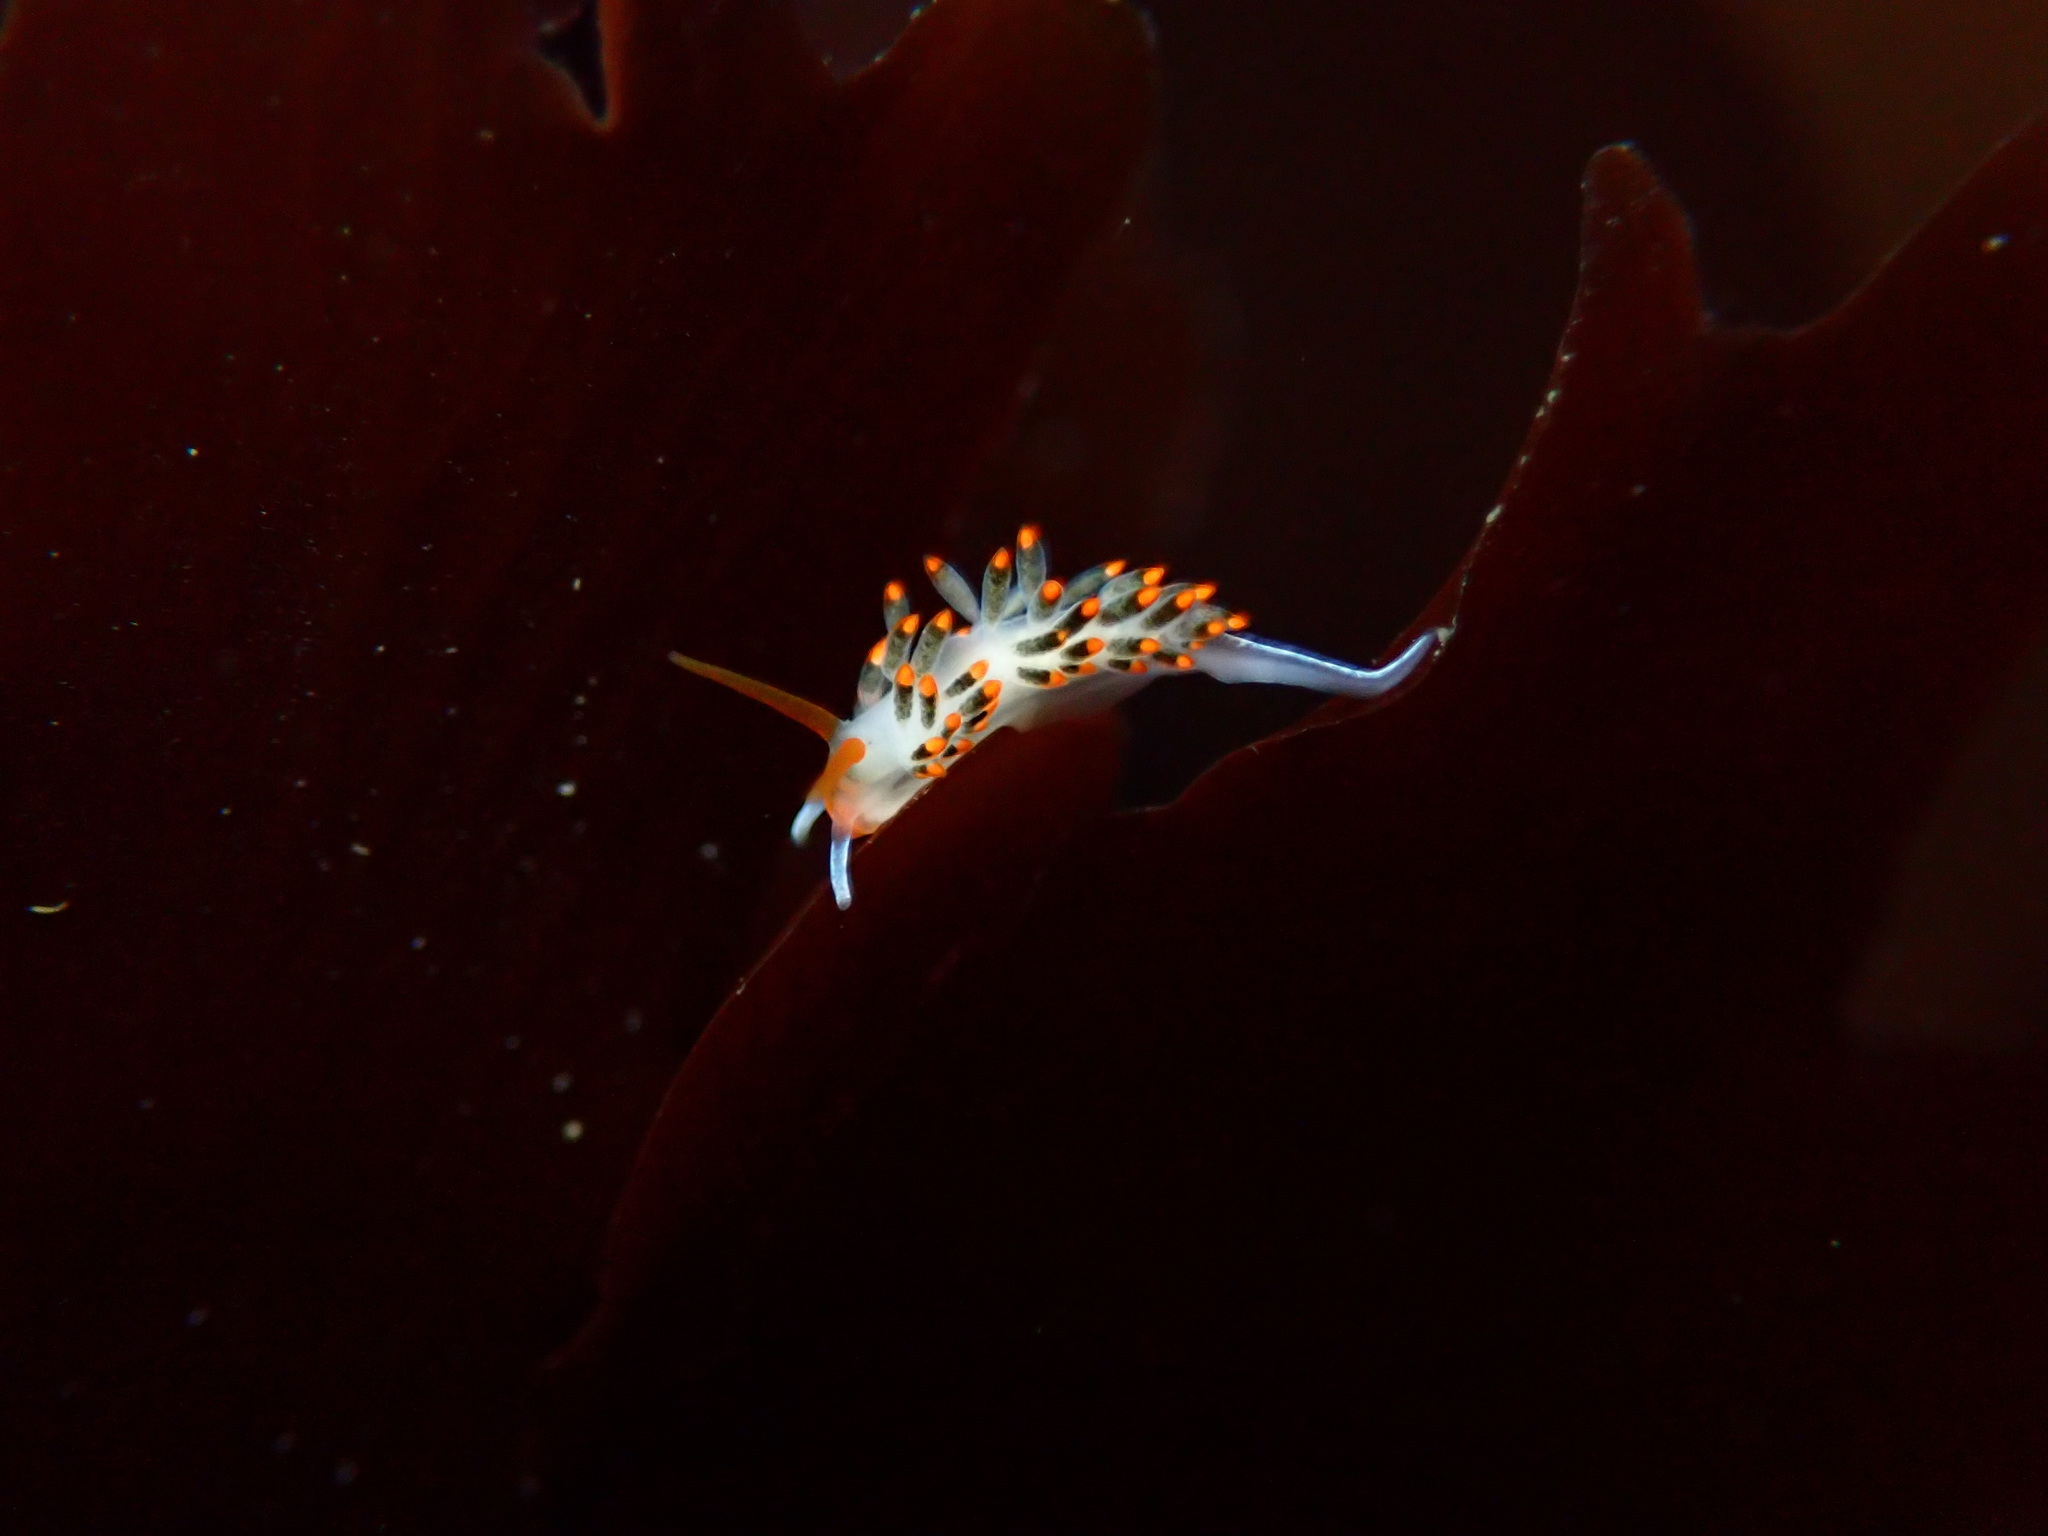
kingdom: Animalia
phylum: Mollusca
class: Gastropoda
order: Nudibranchia
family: Trinchesiidae
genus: Diaphoreolis
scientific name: Diaphoreolis lagunae
